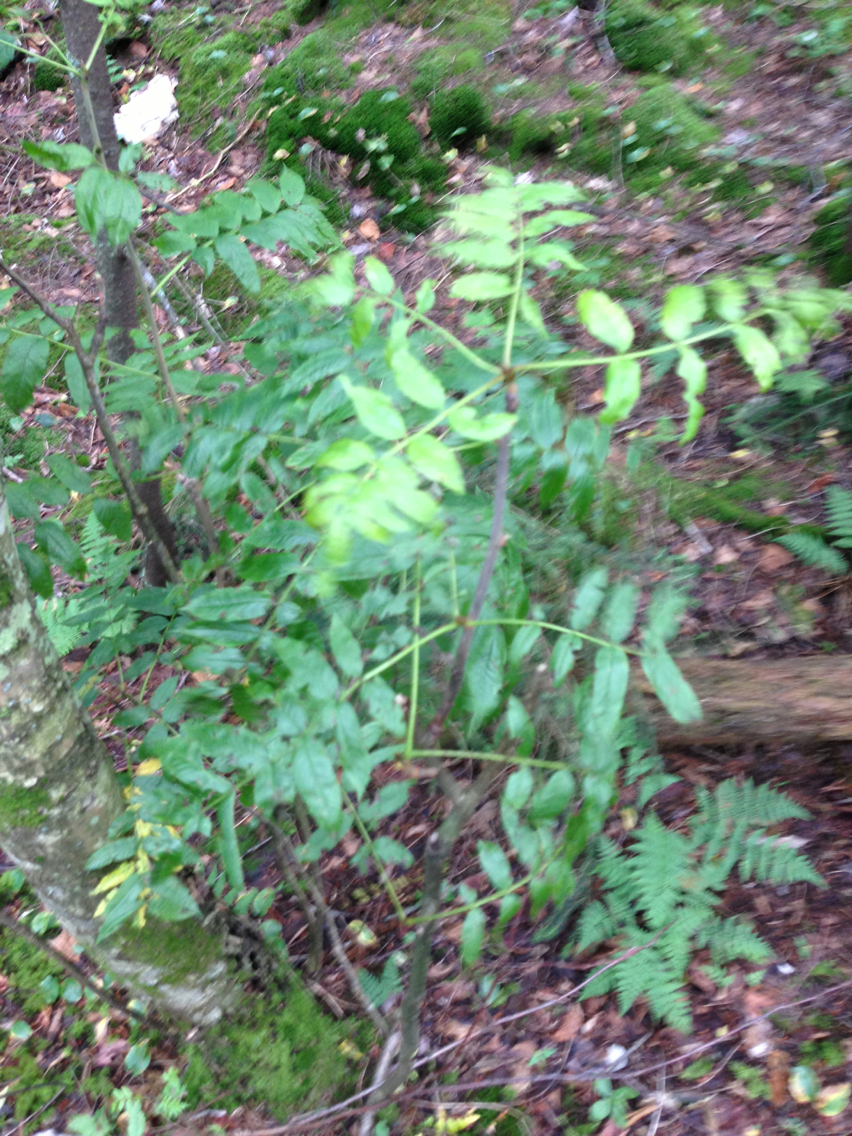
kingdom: Plantae
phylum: Tracheophyta
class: Magnoliopsida
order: Rosales
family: Rosaceae
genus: Sorbus
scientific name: Sorbus americana
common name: American mountain-ash
